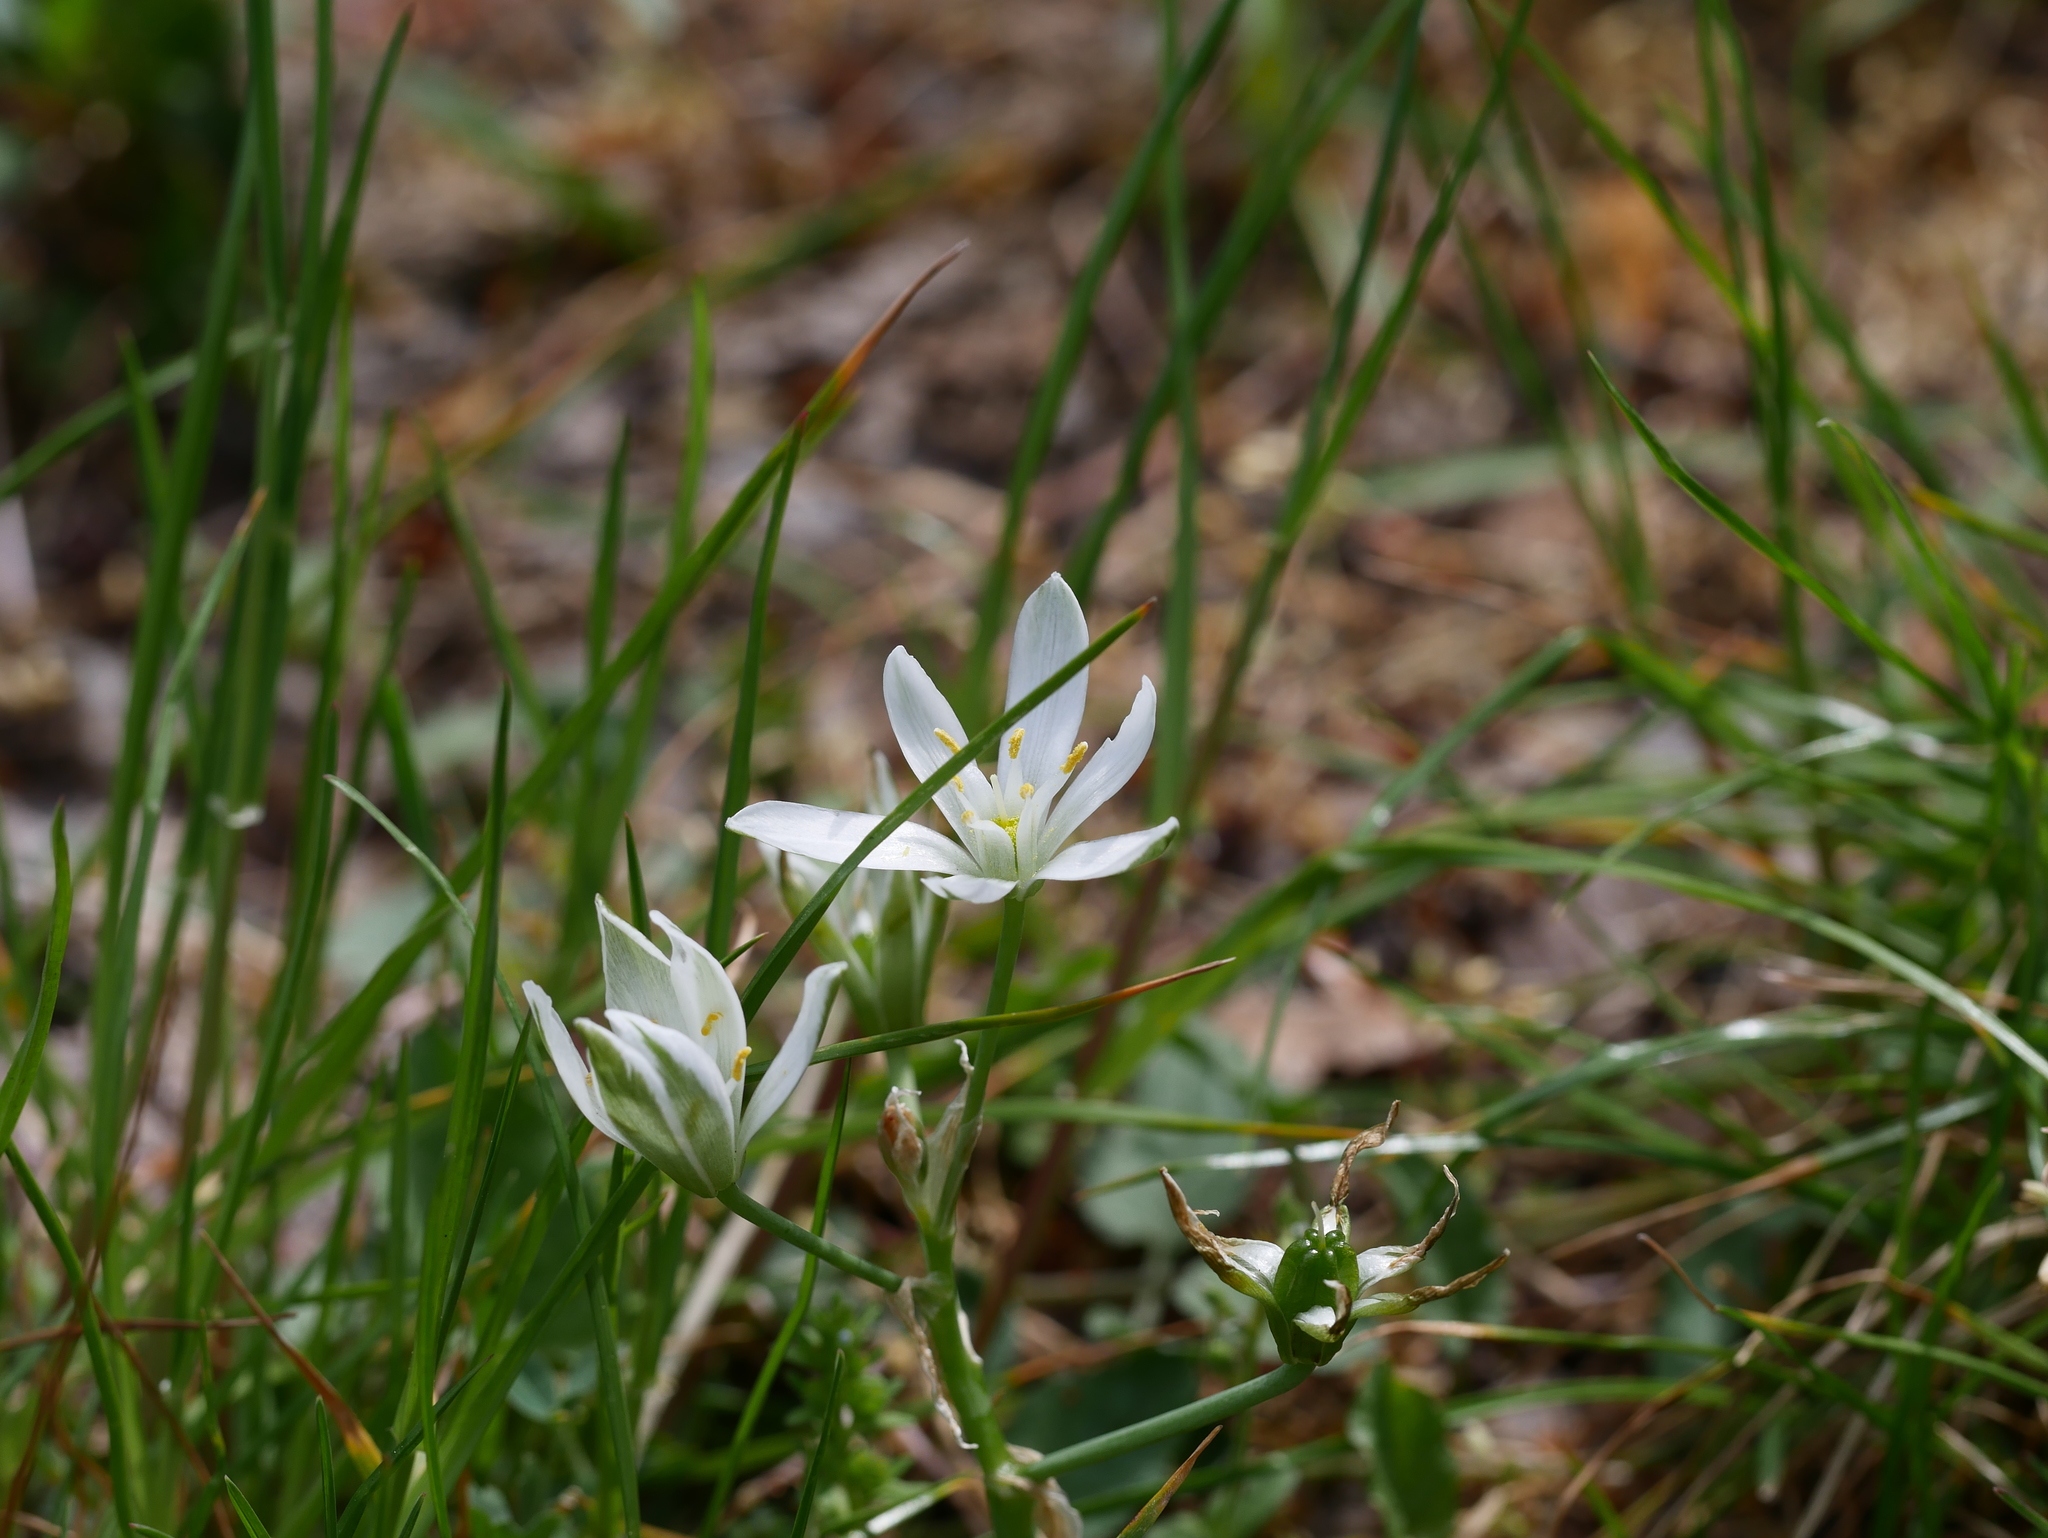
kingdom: Plantae
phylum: Tracheophyta
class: Liliopsida
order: Asparagales
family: Asparagaceae
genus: Ornithogalum
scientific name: Ornithogalum umbellatum
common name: Garden star-of-bethlehem
